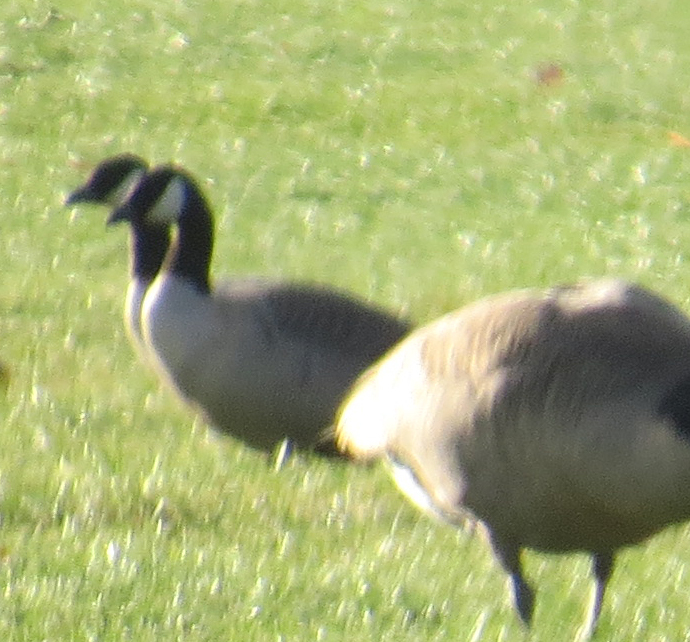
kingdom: Animalia
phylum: Chordata
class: Aves
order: Anseriformes
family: Anatidae
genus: Branta
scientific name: Branta hutchinsii
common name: Cackling goose
